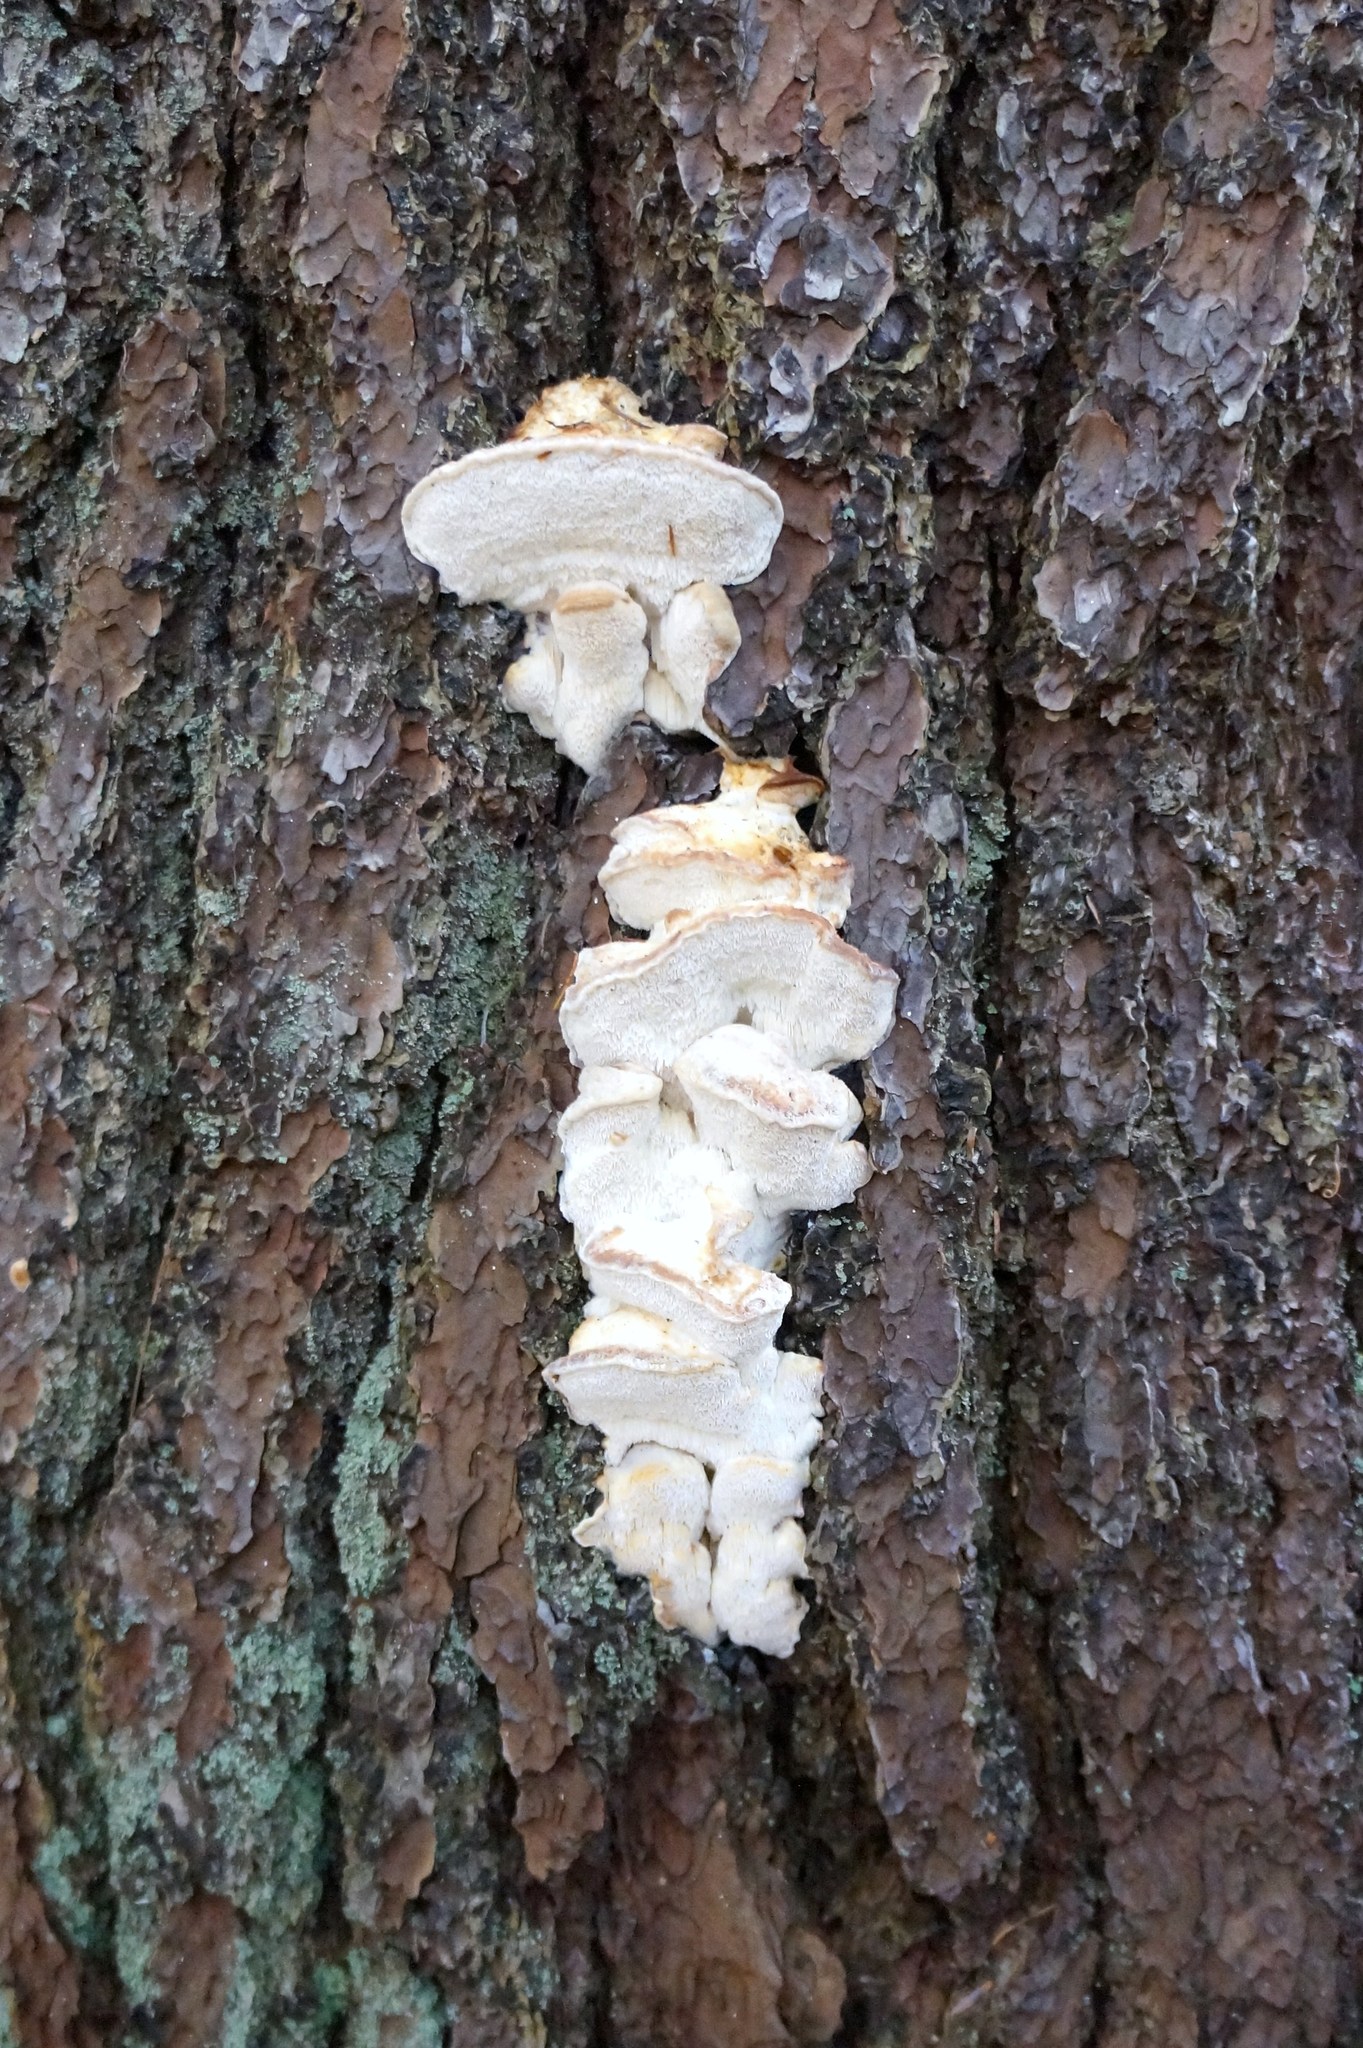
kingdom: Fungi
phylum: Basidiomycota
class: Agaricomycetes
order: Polyporales
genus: Fuscopostia
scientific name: Fuscopostia fragilis
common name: Brown-staining cheese polypore
